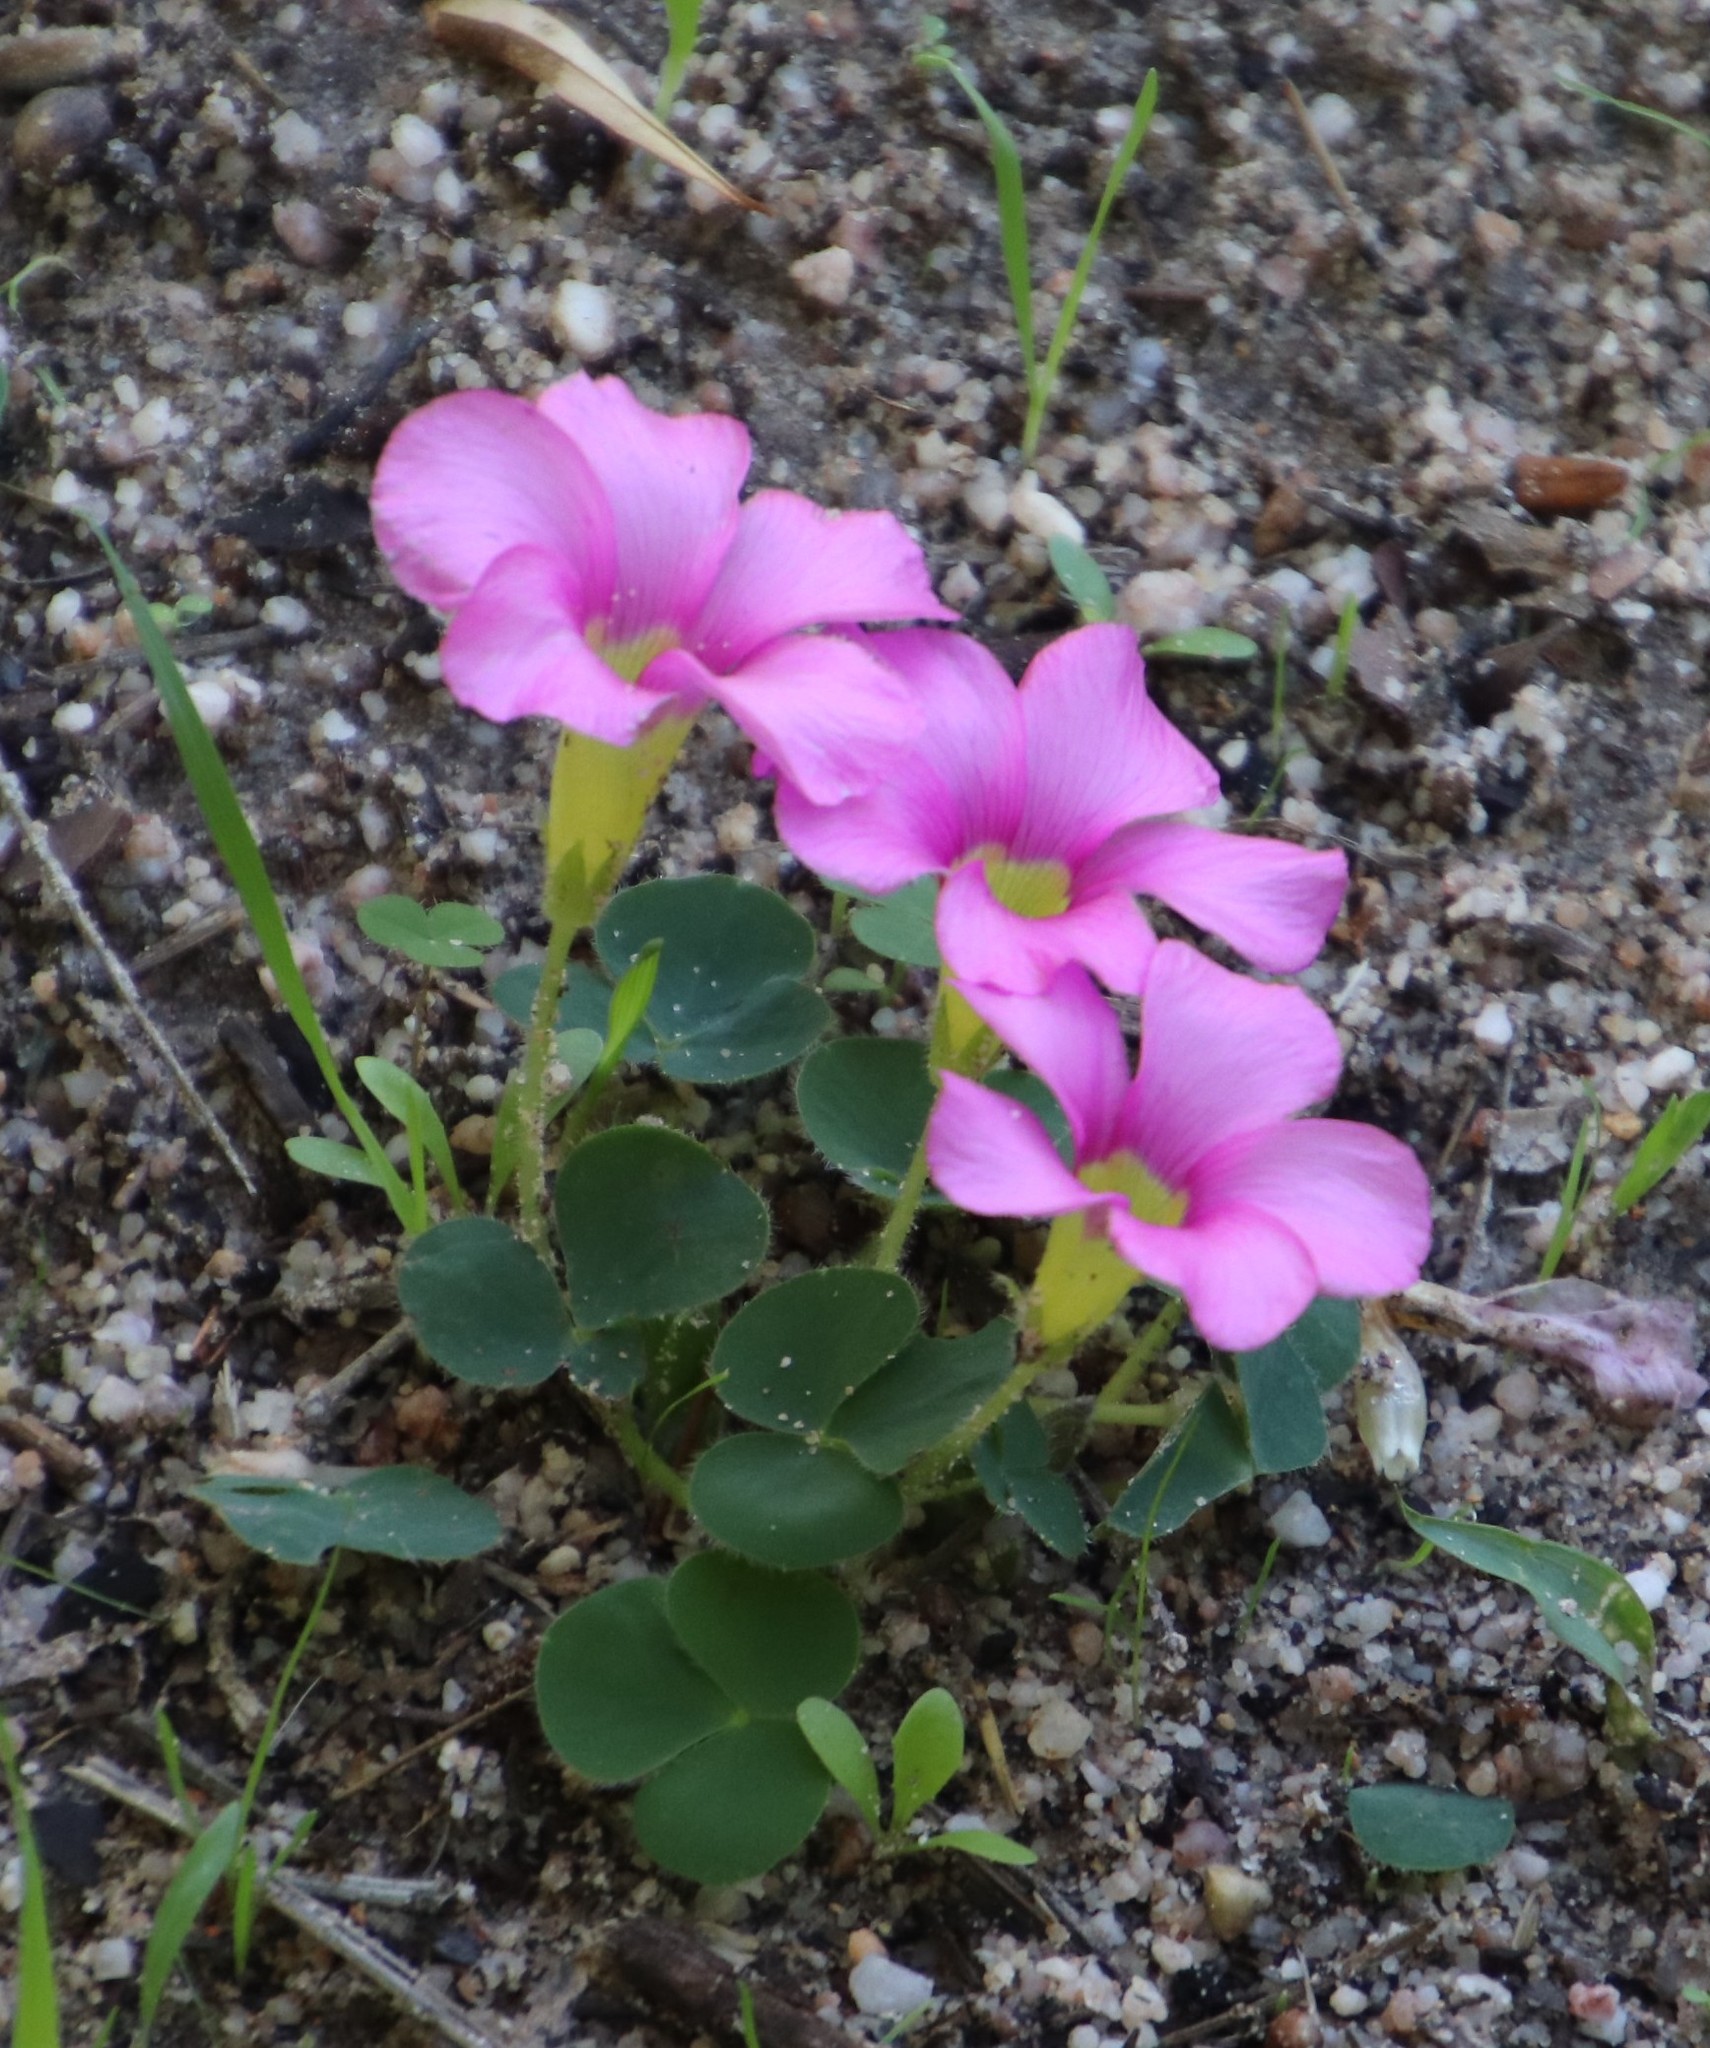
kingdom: Plantae
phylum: Tracheophyta
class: Magnoliopsida
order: Oxalidales
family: Oxalidaceae
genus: Oxalis
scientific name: Oxalis purpurea
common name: Purple woodsorrel
